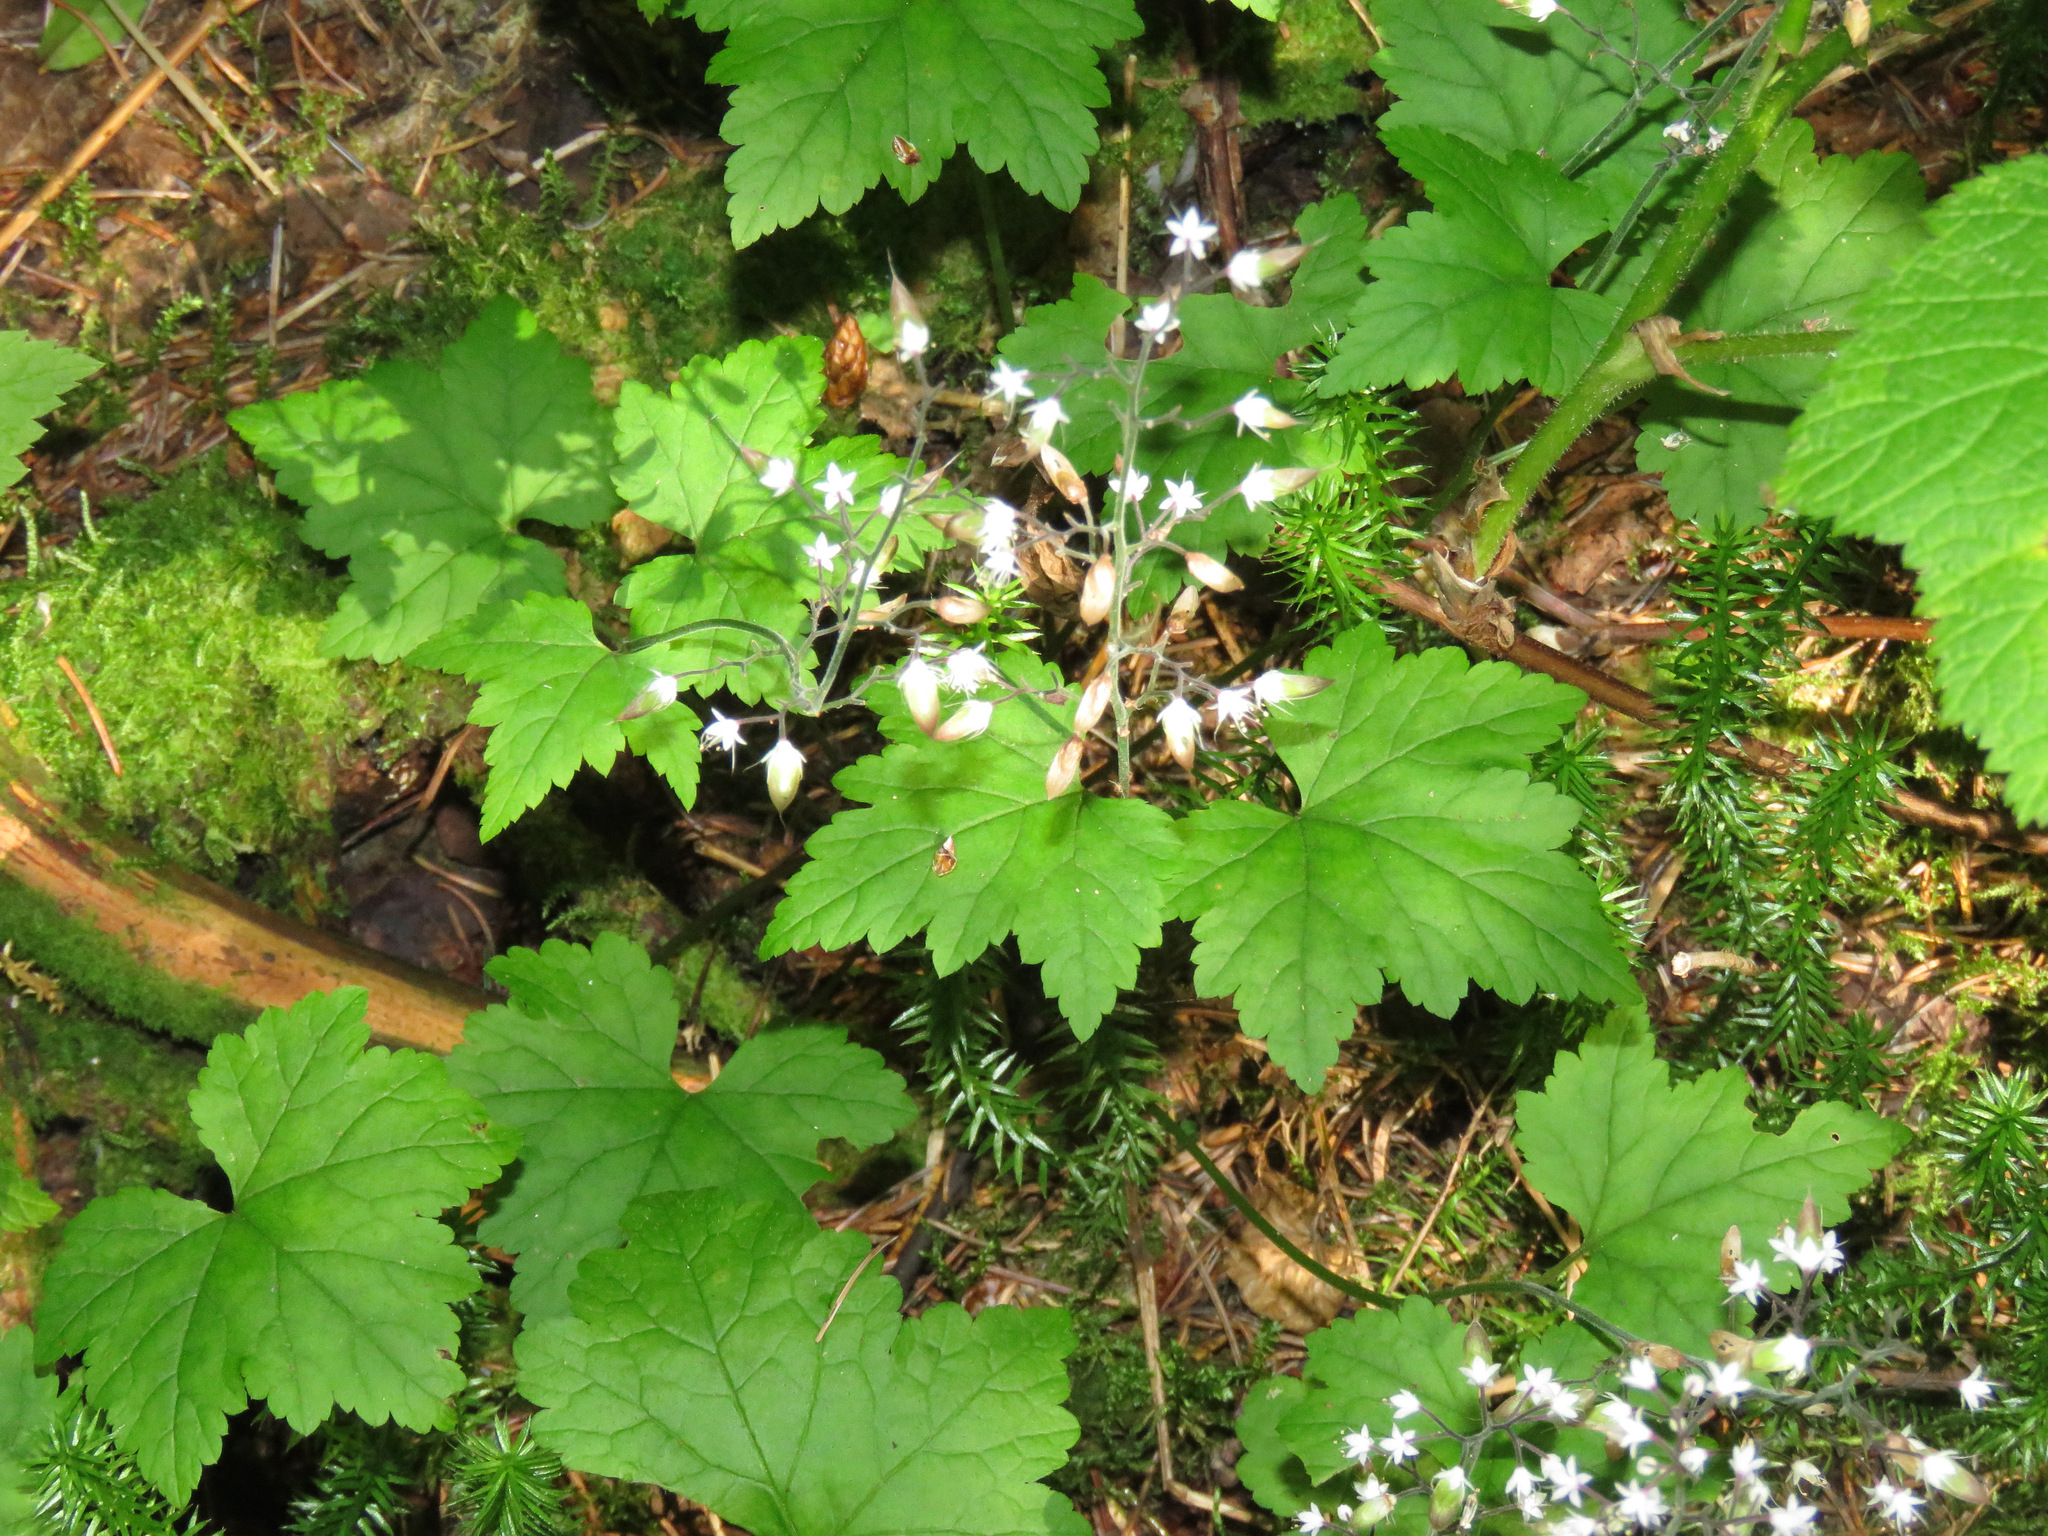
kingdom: Plantae
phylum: Tracheophyta
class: Magnoliopsida
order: Saxifragales
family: Saxifragaceae
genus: Tiarella
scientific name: Tiarella trifoliata
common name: Sugar-scoop
